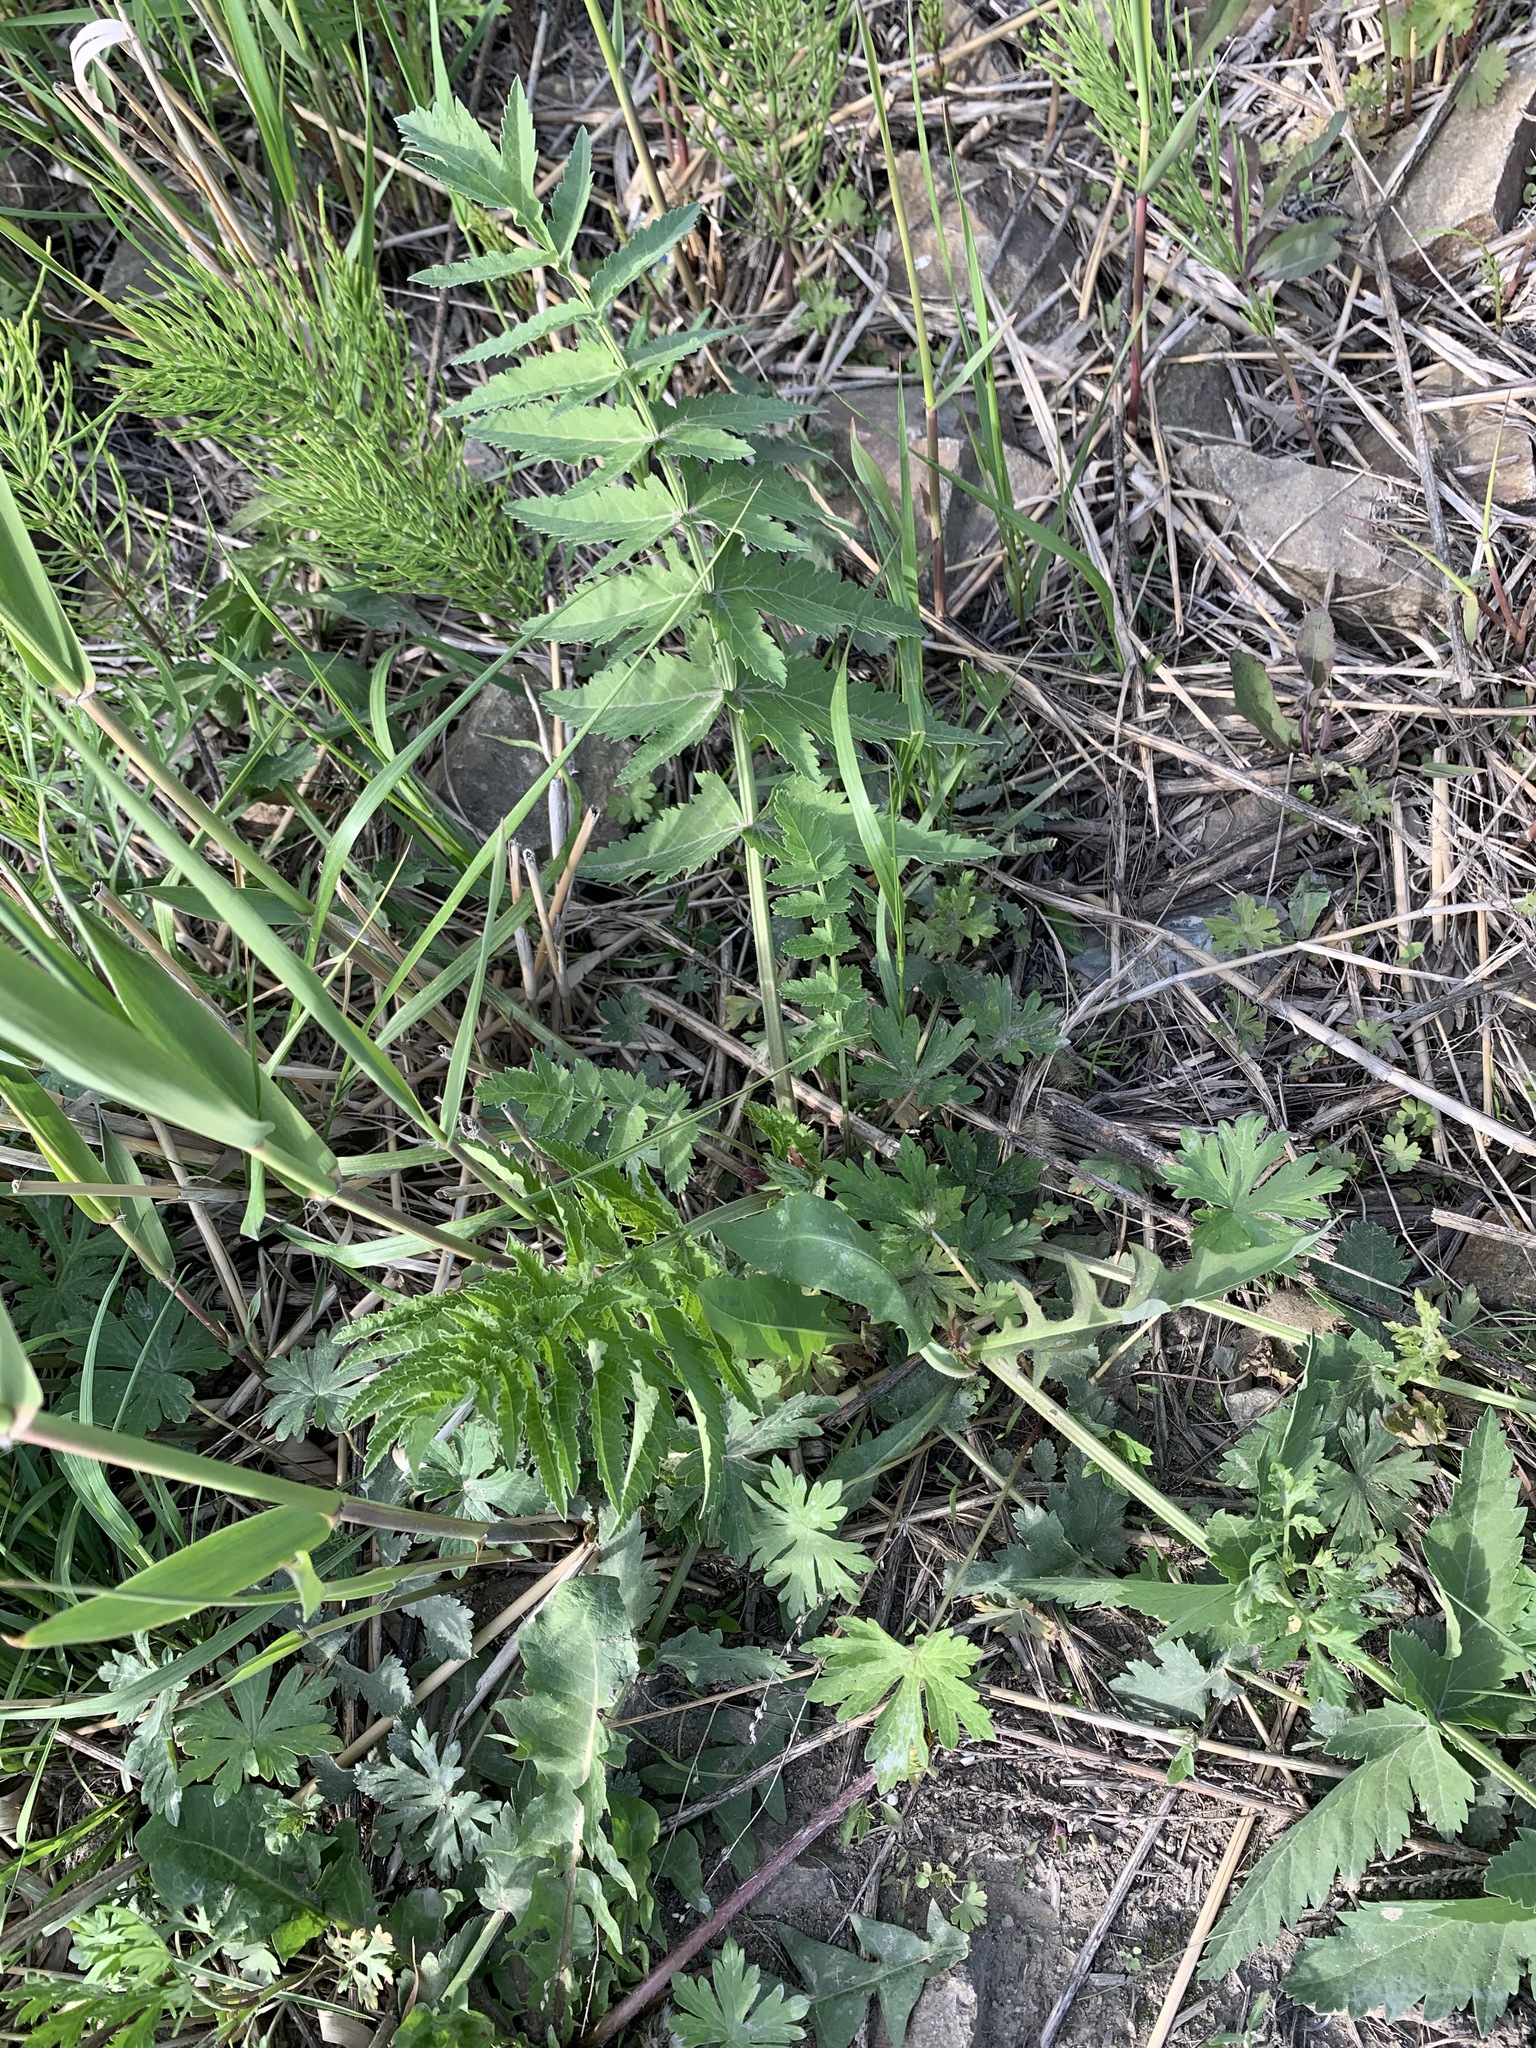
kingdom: Plantae
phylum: Tracheophyta
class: Magnoliopsida
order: Apiales
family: Apiaceae
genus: Pastinaca
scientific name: Pastinaca sativa
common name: Wild parsnip
